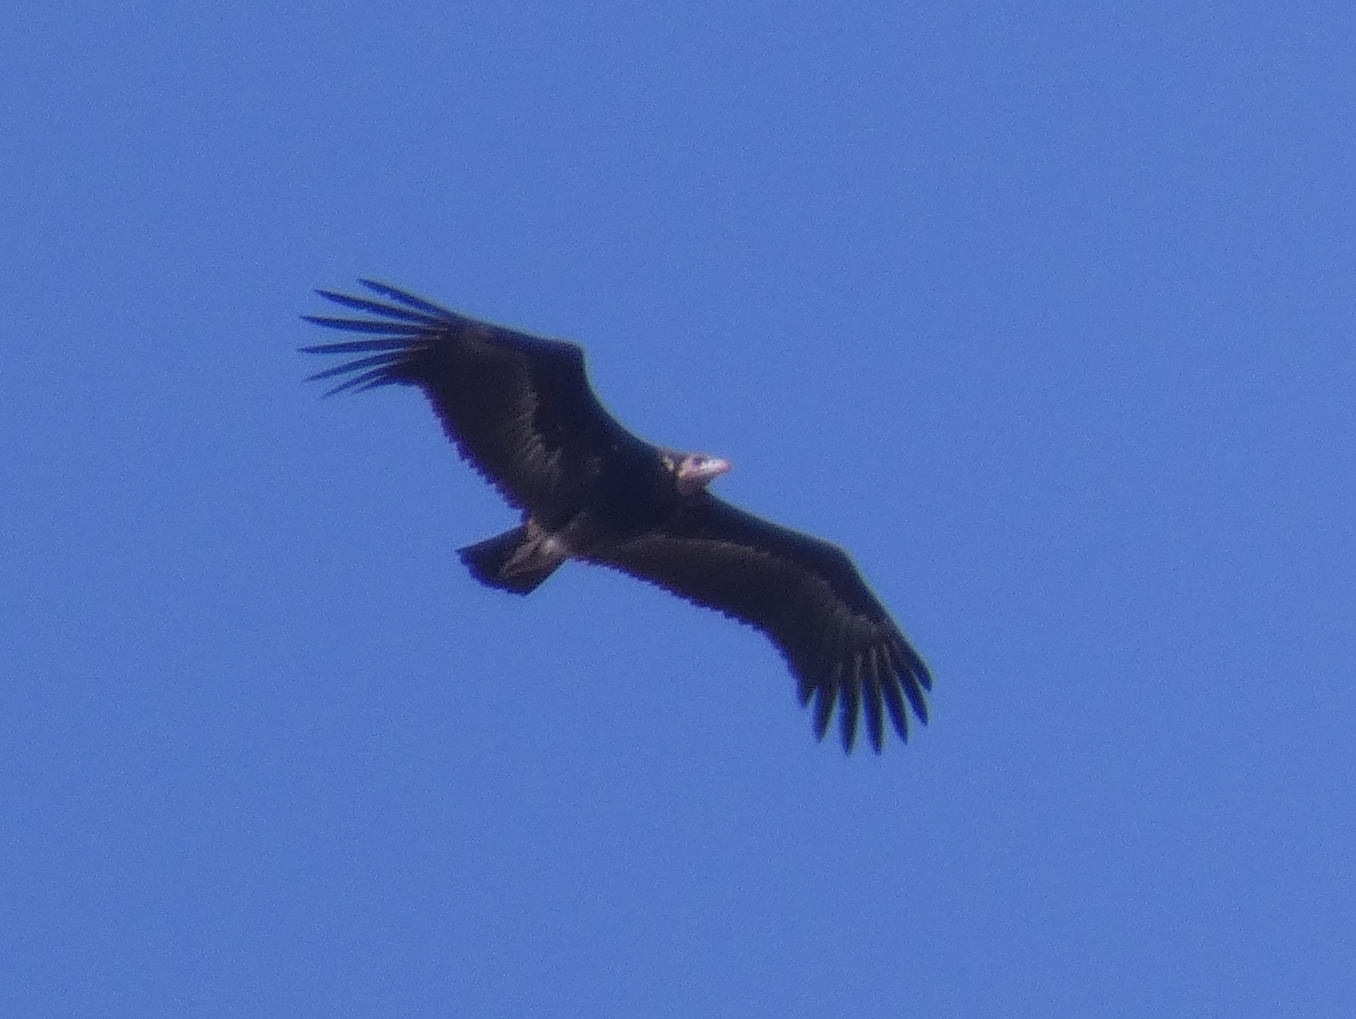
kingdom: Animalia
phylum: Chordata
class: Aves
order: Accipitriformes
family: Accipitridae
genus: Trigonoceps
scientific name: Trigonoceps occipitalis
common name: White-headed vulture
